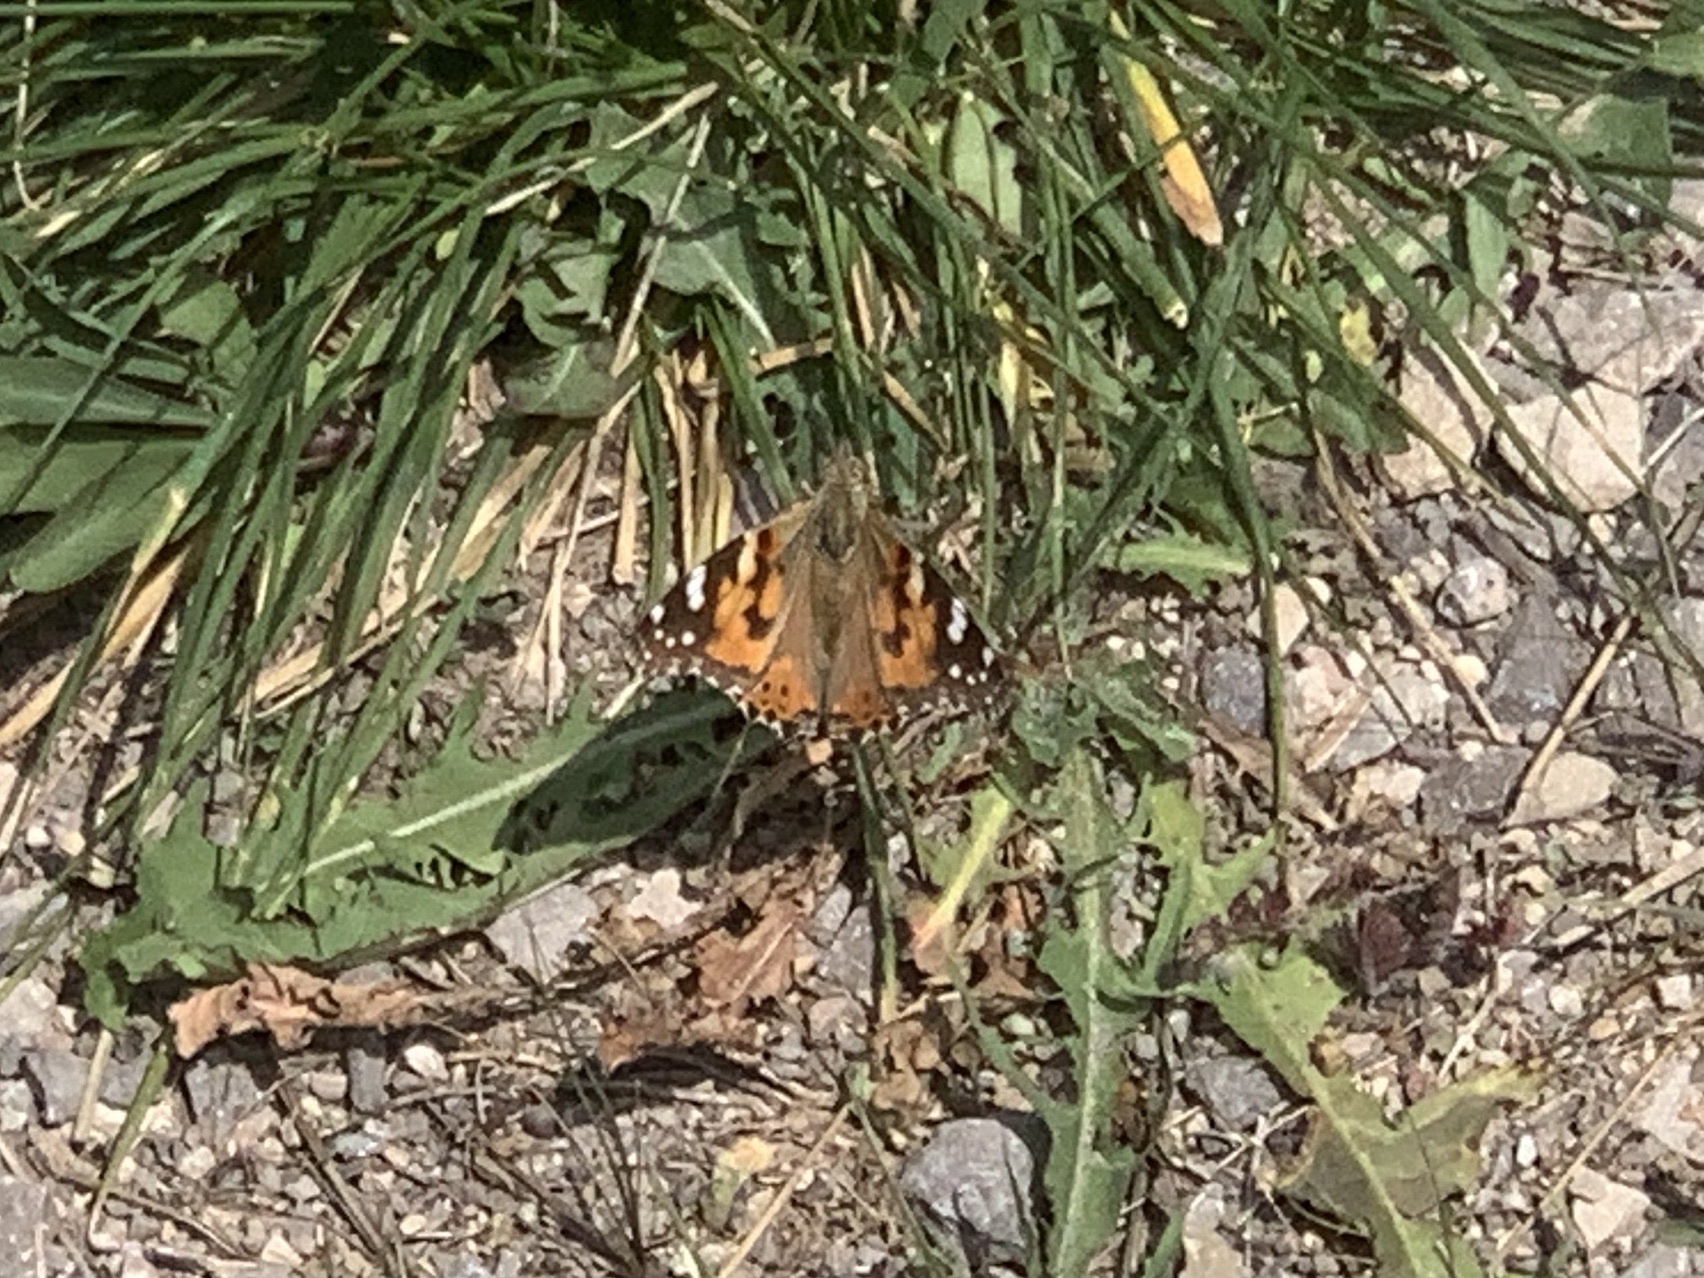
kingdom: Animalia
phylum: Arthropoda
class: Insecta
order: Lepidoptera
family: Nymphalidae
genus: Vanessa
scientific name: Vanessa cardui
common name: Painted lady
